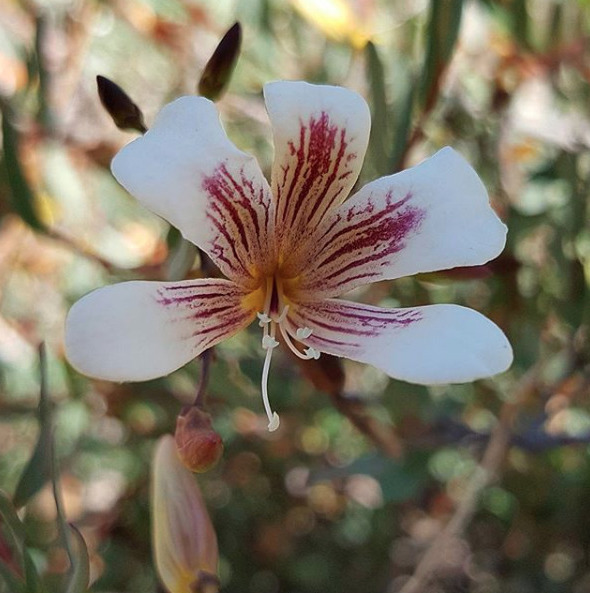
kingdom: Plantae
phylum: Tracheophyta
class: Magnoliopsida
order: Apiales
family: Pittosporaceae
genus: Marianthus
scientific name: Marianthus bicolor
